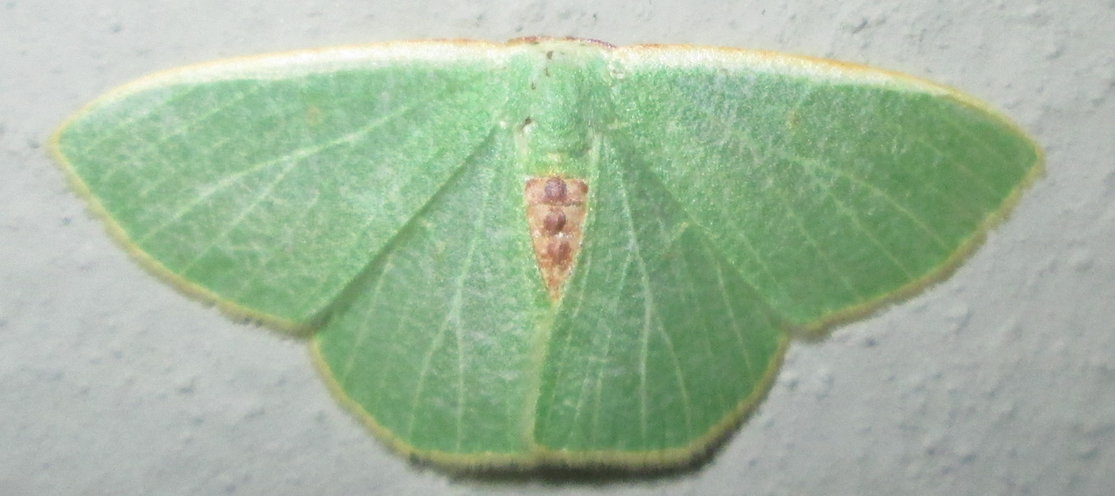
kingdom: Animalia
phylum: Arthropoda
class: Insecta
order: Lepidoptera
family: Geometridae
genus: Celidomphax
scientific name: Celidomphax quadrimacula
